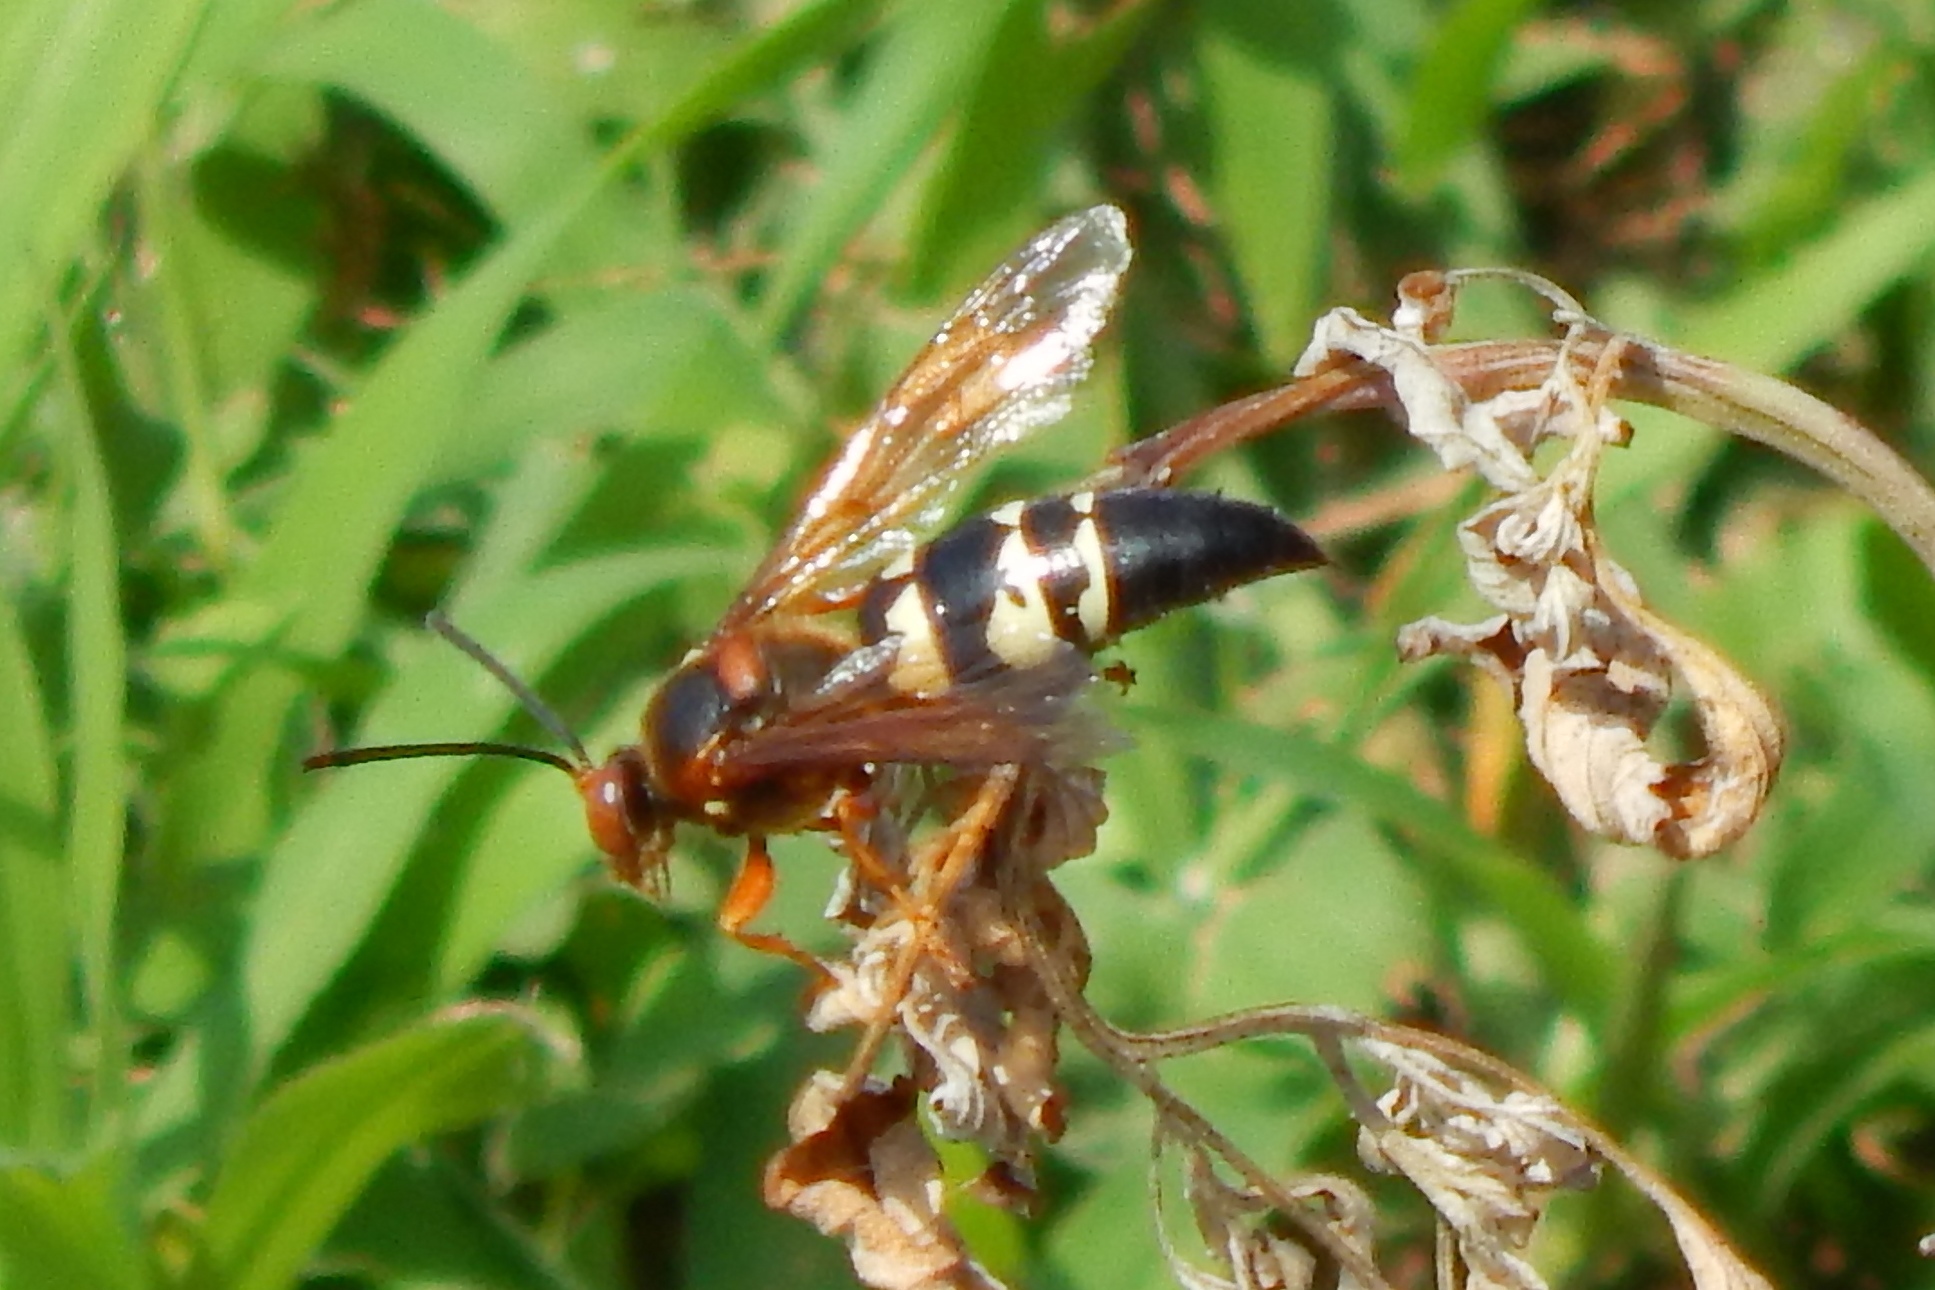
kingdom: Animalia
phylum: Arthropoda
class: Insecta
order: Hymenoptera
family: Crabronidae
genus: Sphecius
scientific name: Sphecius speciosus
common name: Cicada killer
